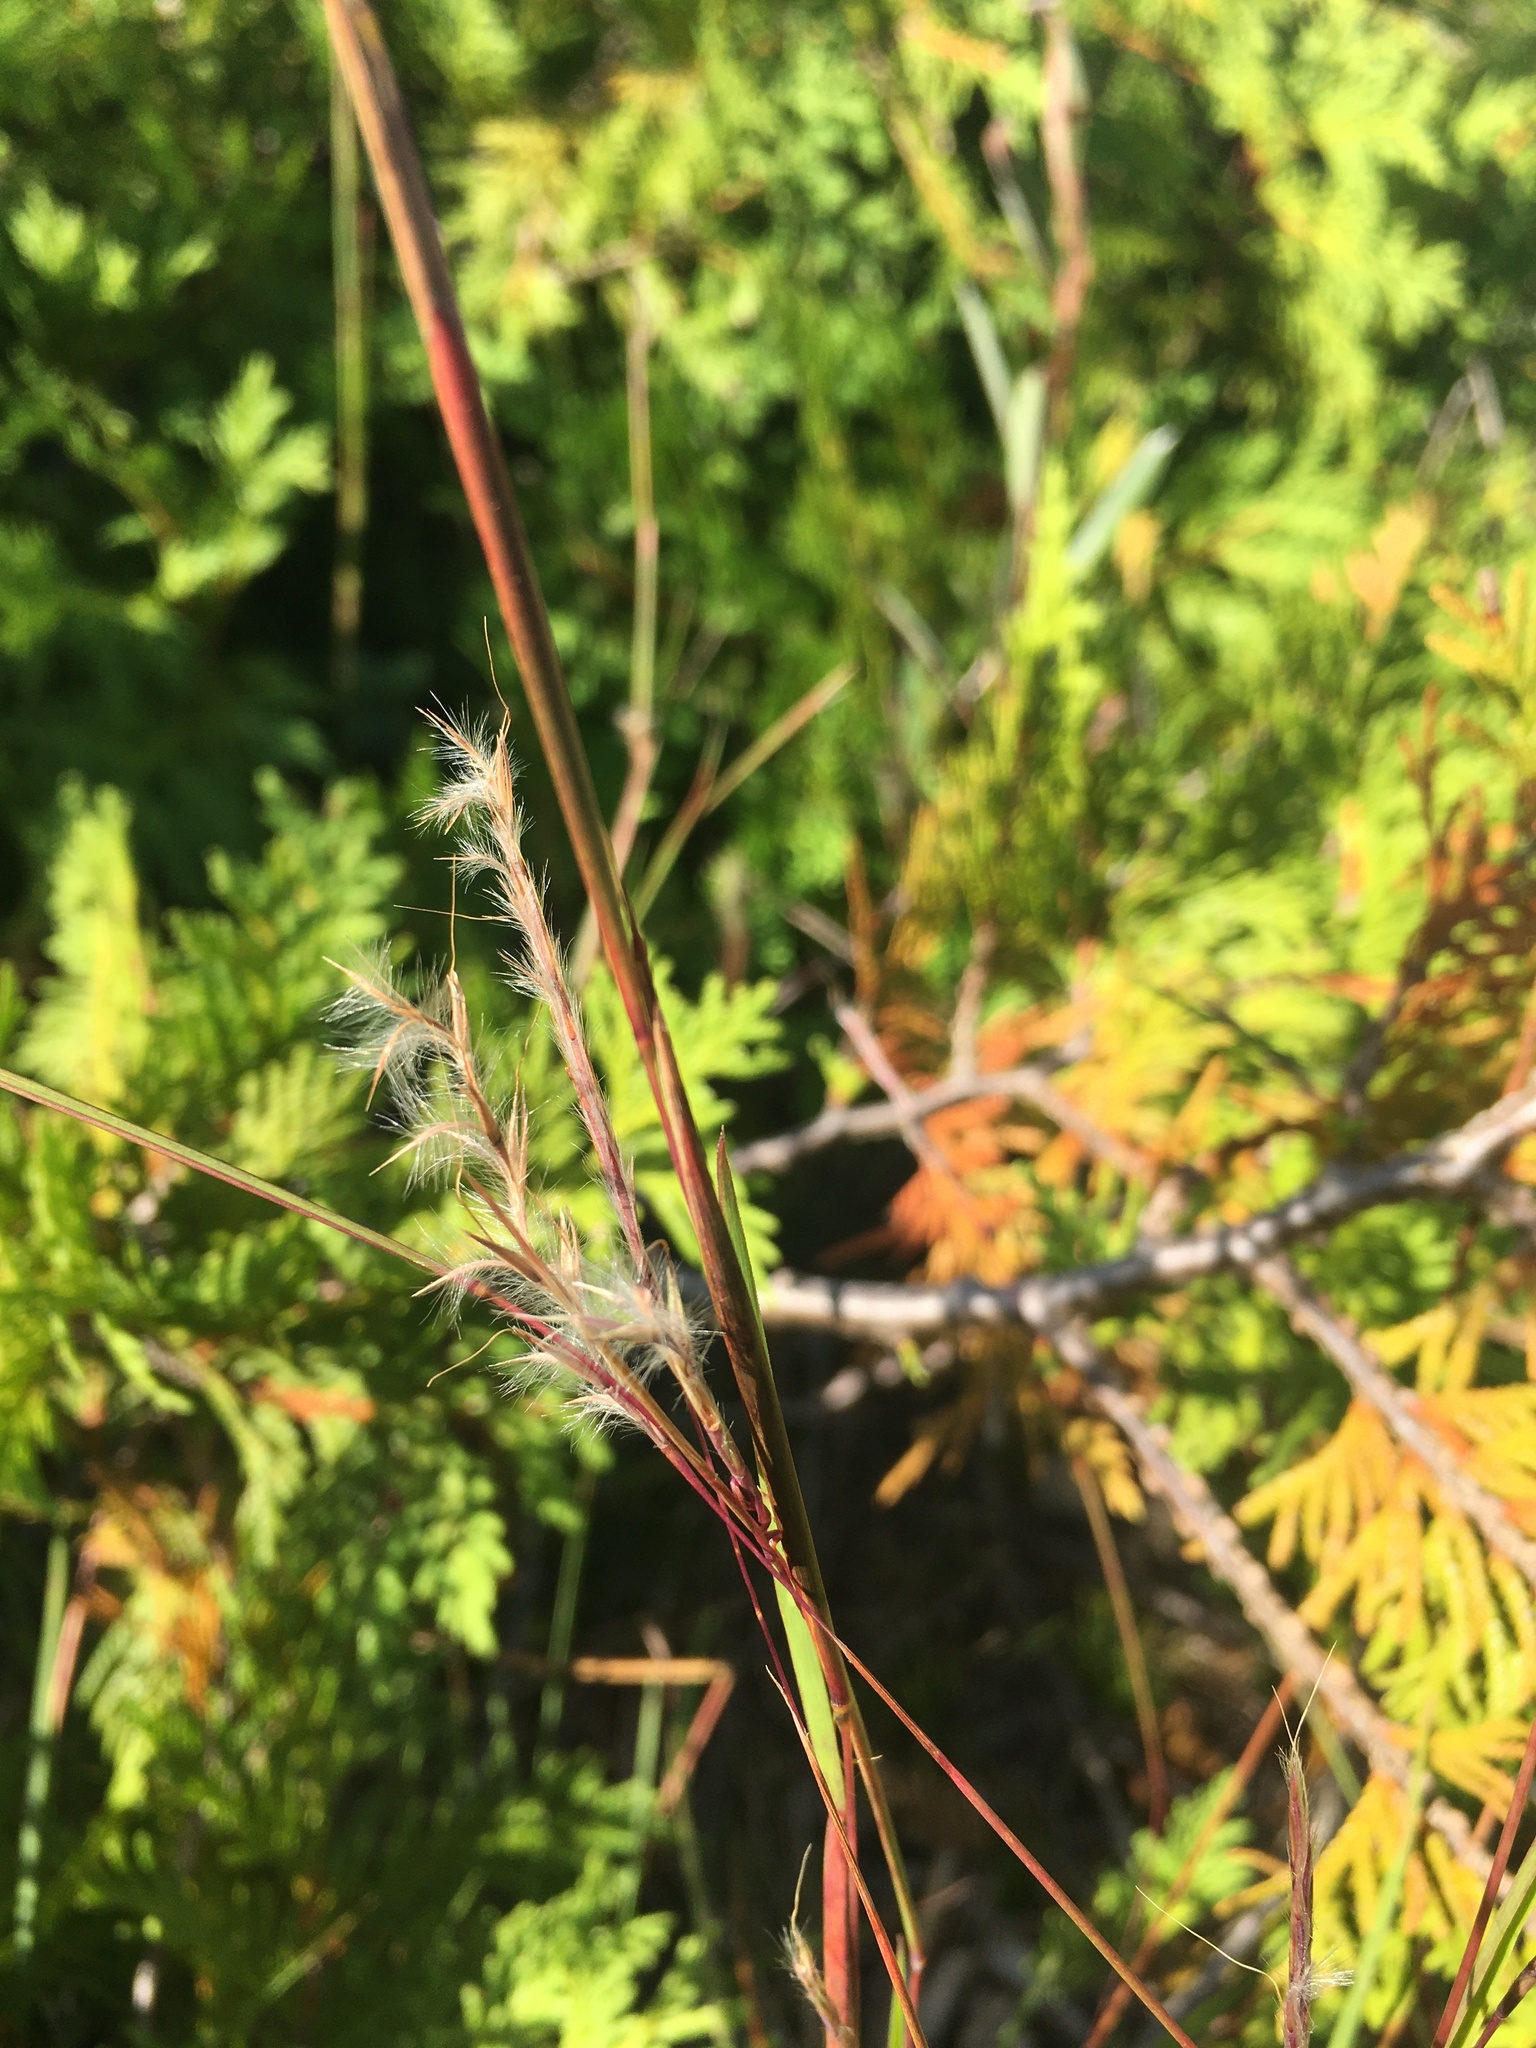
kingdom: Plantae
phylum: Tracheophyta
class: Liliopsida
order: Poales
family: Poaceae
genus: Schizachyrium
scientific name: Schizachyrium scoparium
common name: Little bluestem
